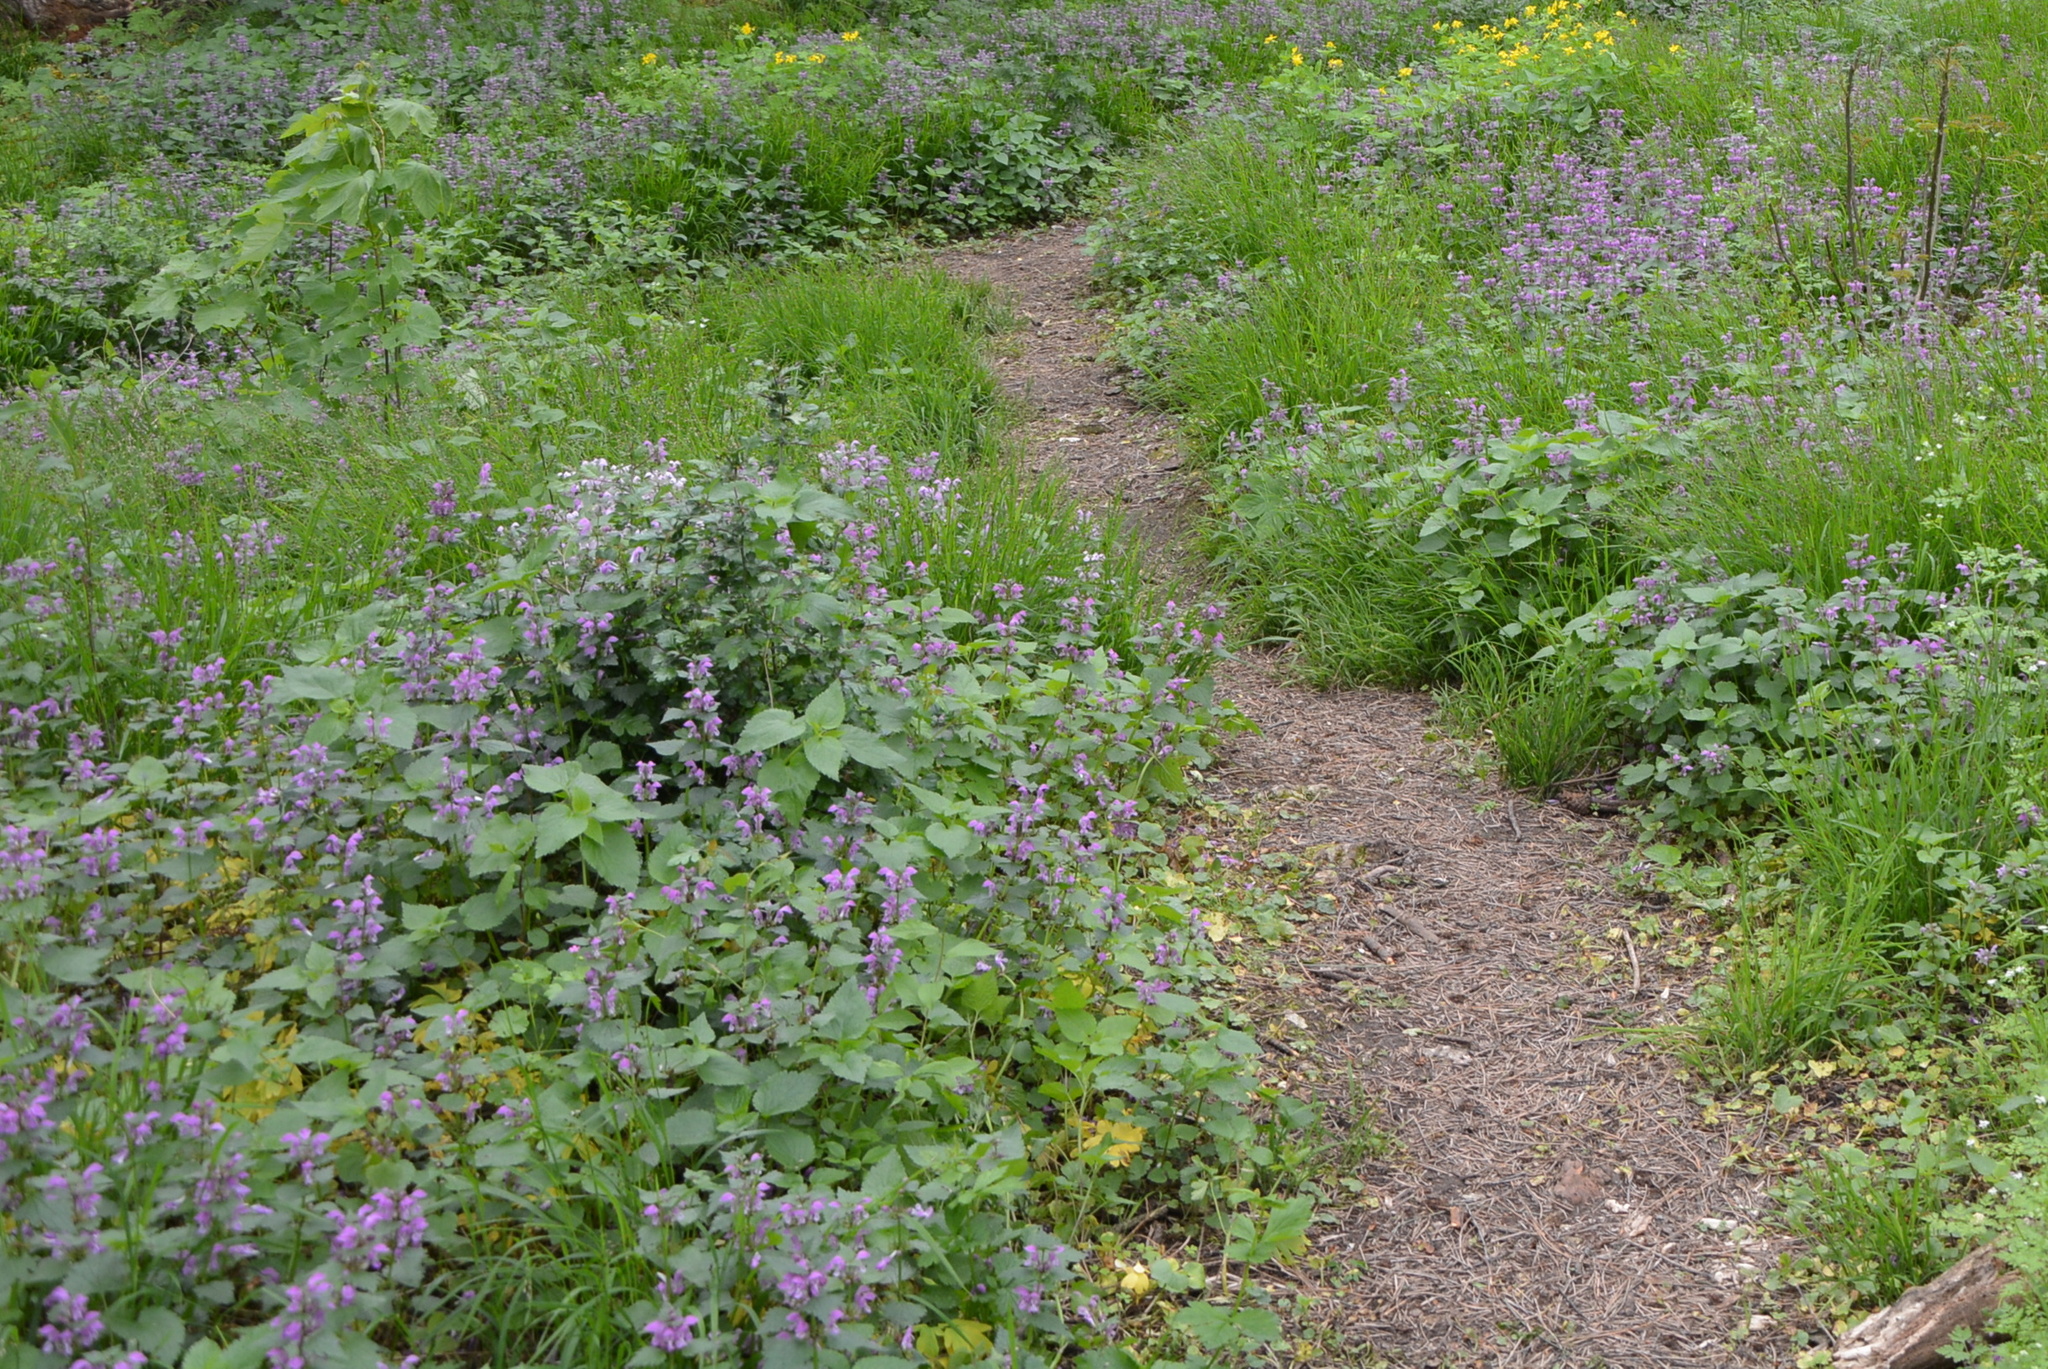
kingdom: Plantae
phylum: Tracheophyta
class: Magnoliopsida
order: Lamiales
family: Lamiaceae
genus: Lamium
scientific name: Lamium maculatum
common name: Spotted dead-nettle
